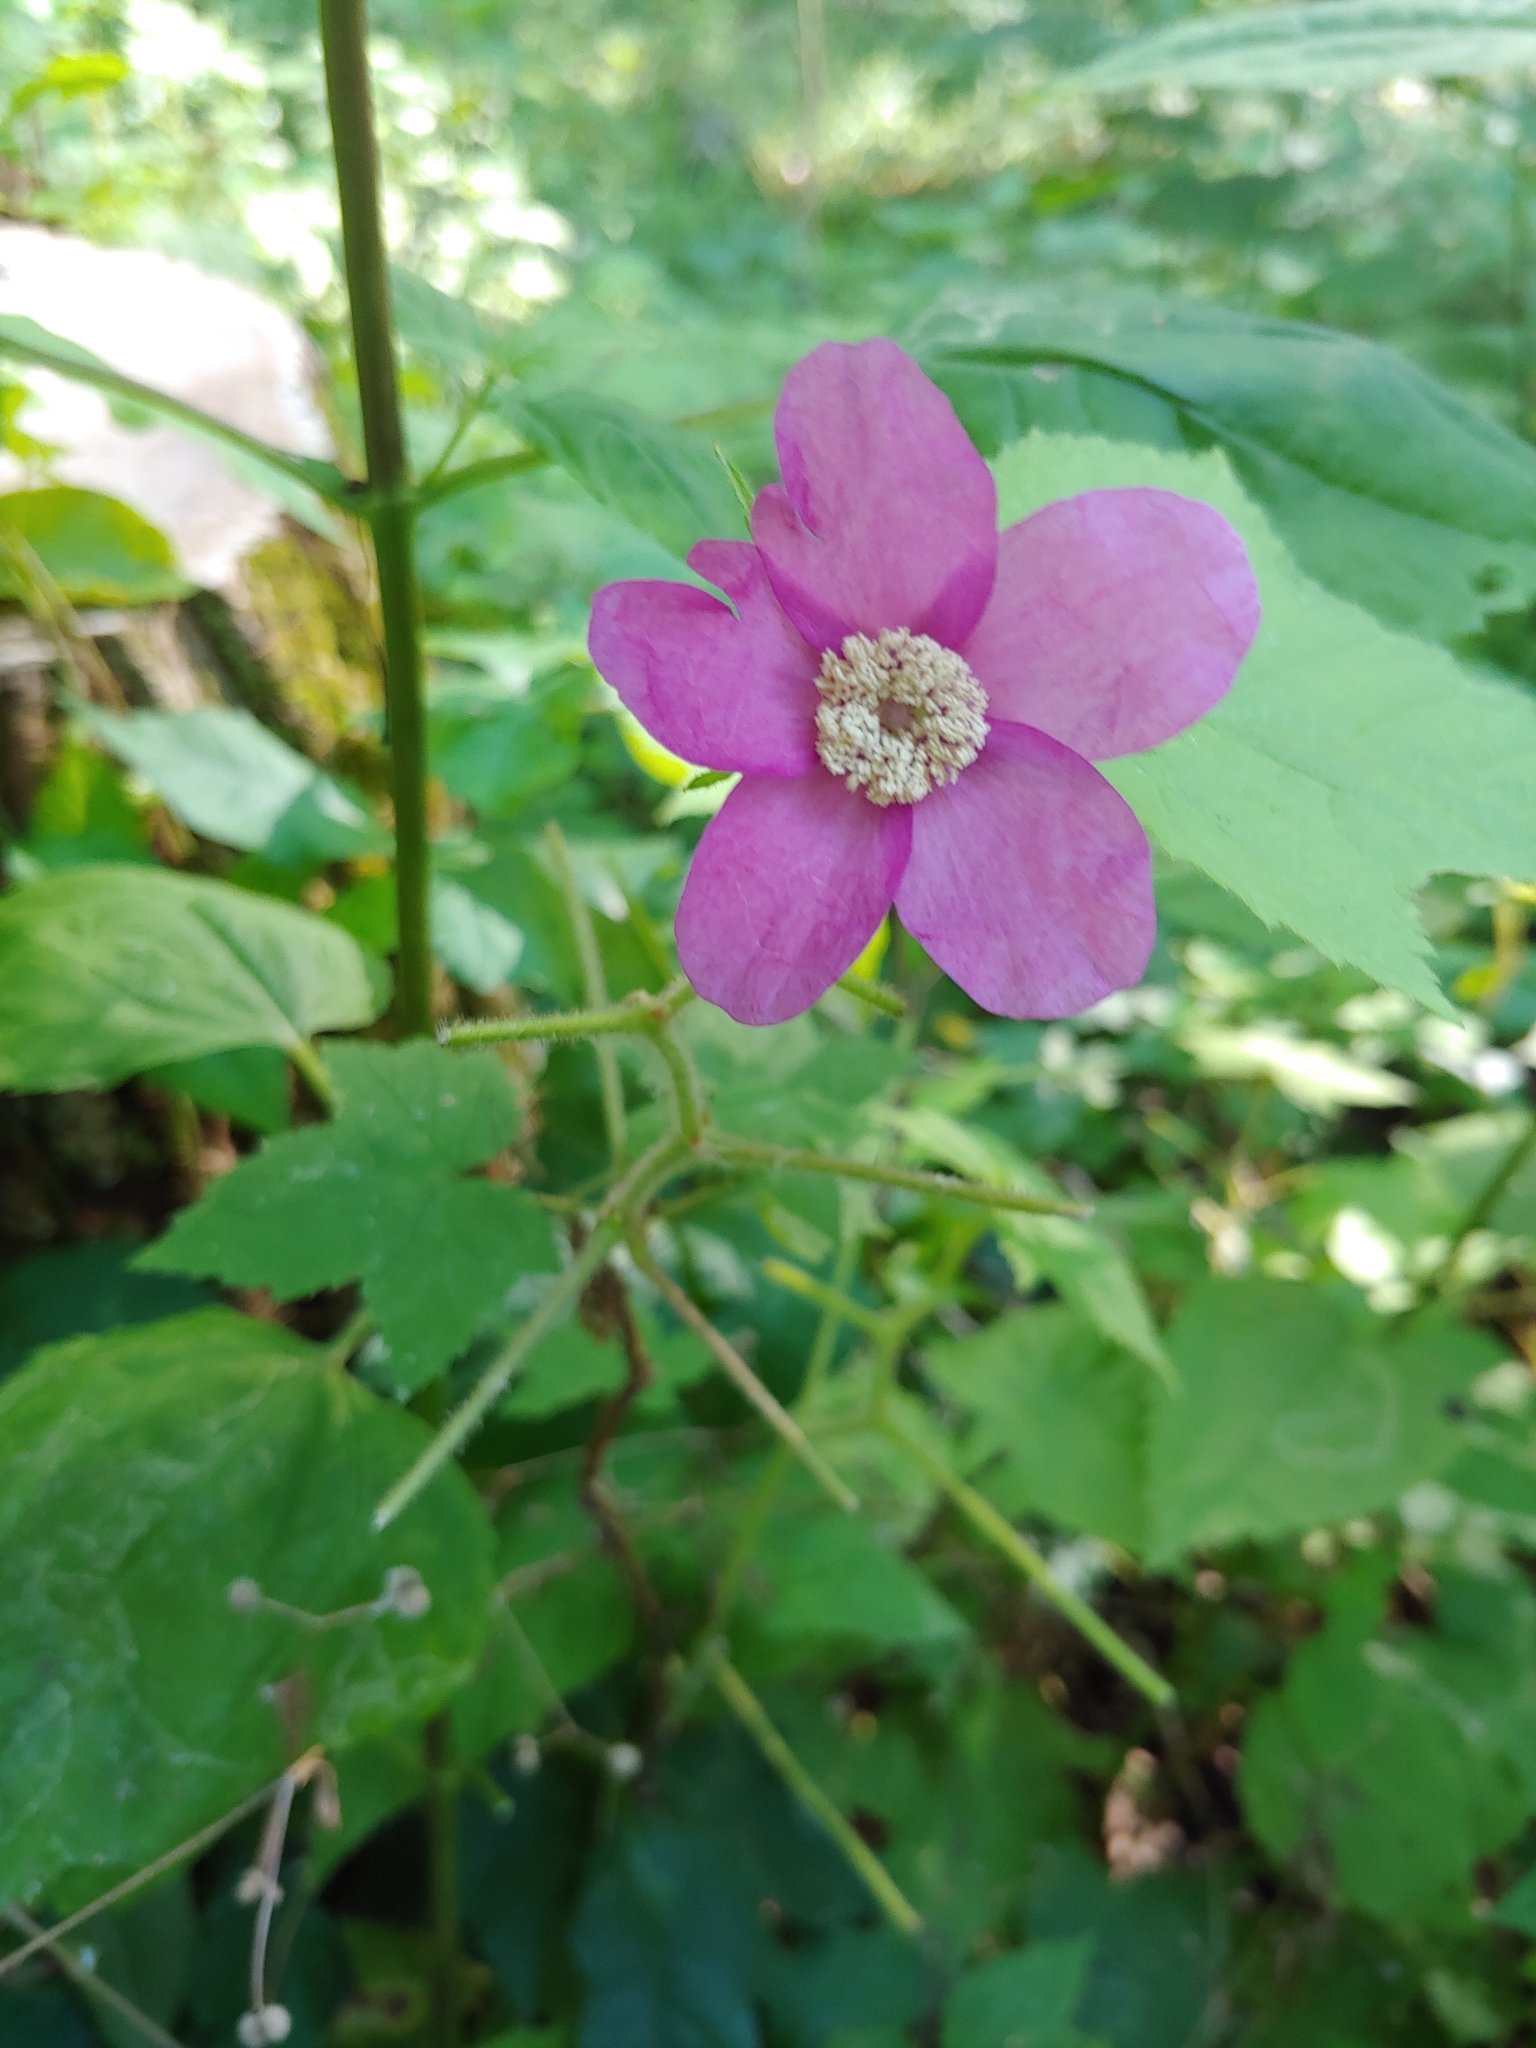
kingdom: Plantae
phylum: Tracheophyta
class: Magnoliopsida
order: Rosales
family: Rosaceae
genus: Rubus
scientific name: Rubus odoratus
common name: Purple-flowered raspberry
